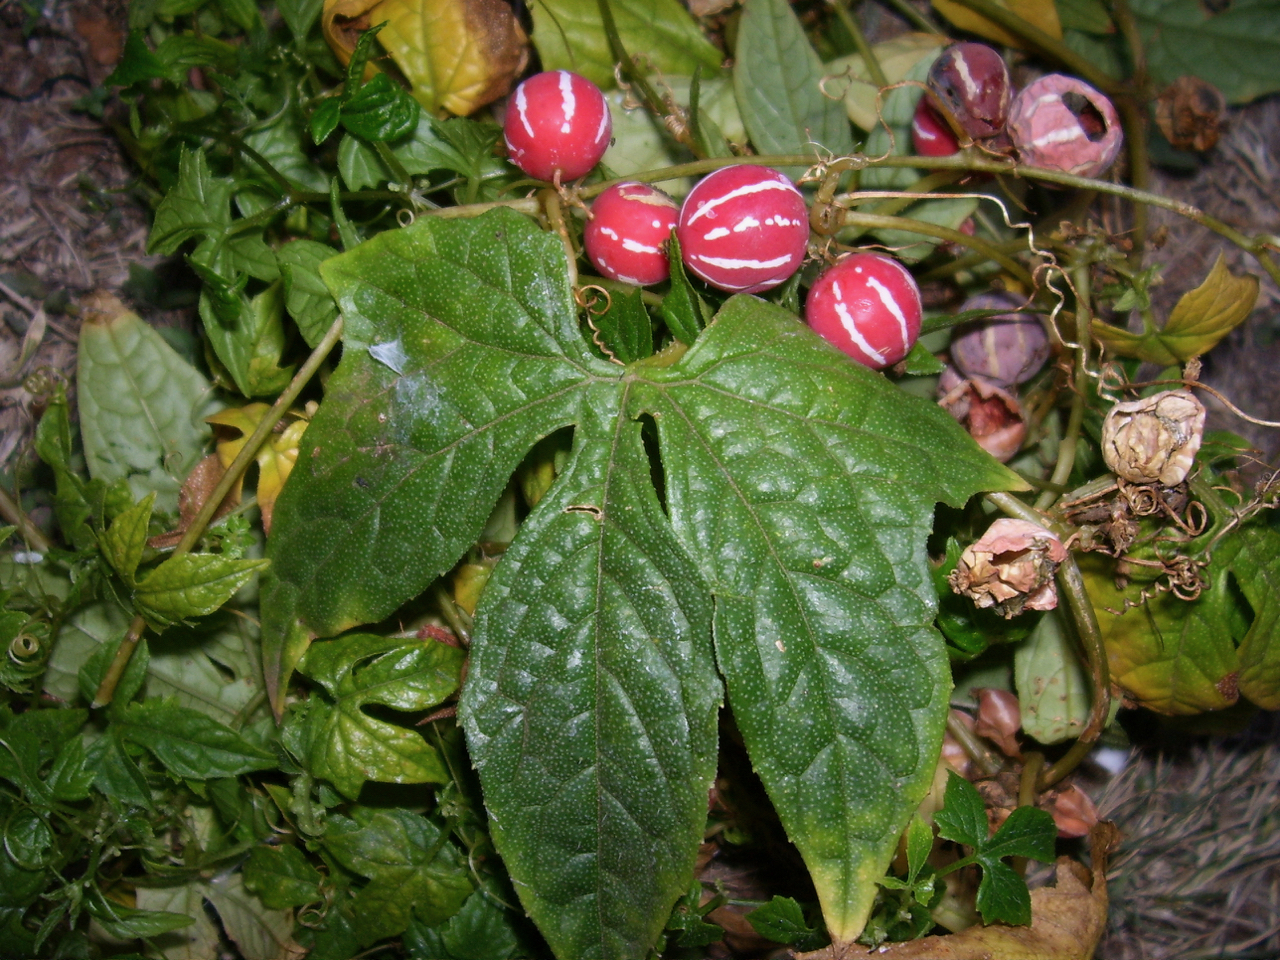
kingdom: Plantae
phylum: Tracheophyta
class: Magnoliopsida
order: Cucurbitales
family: Cucurbitaceae
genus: Diplocyclos
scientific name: Diplocyclos palmatus
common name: Striped-cucumber
